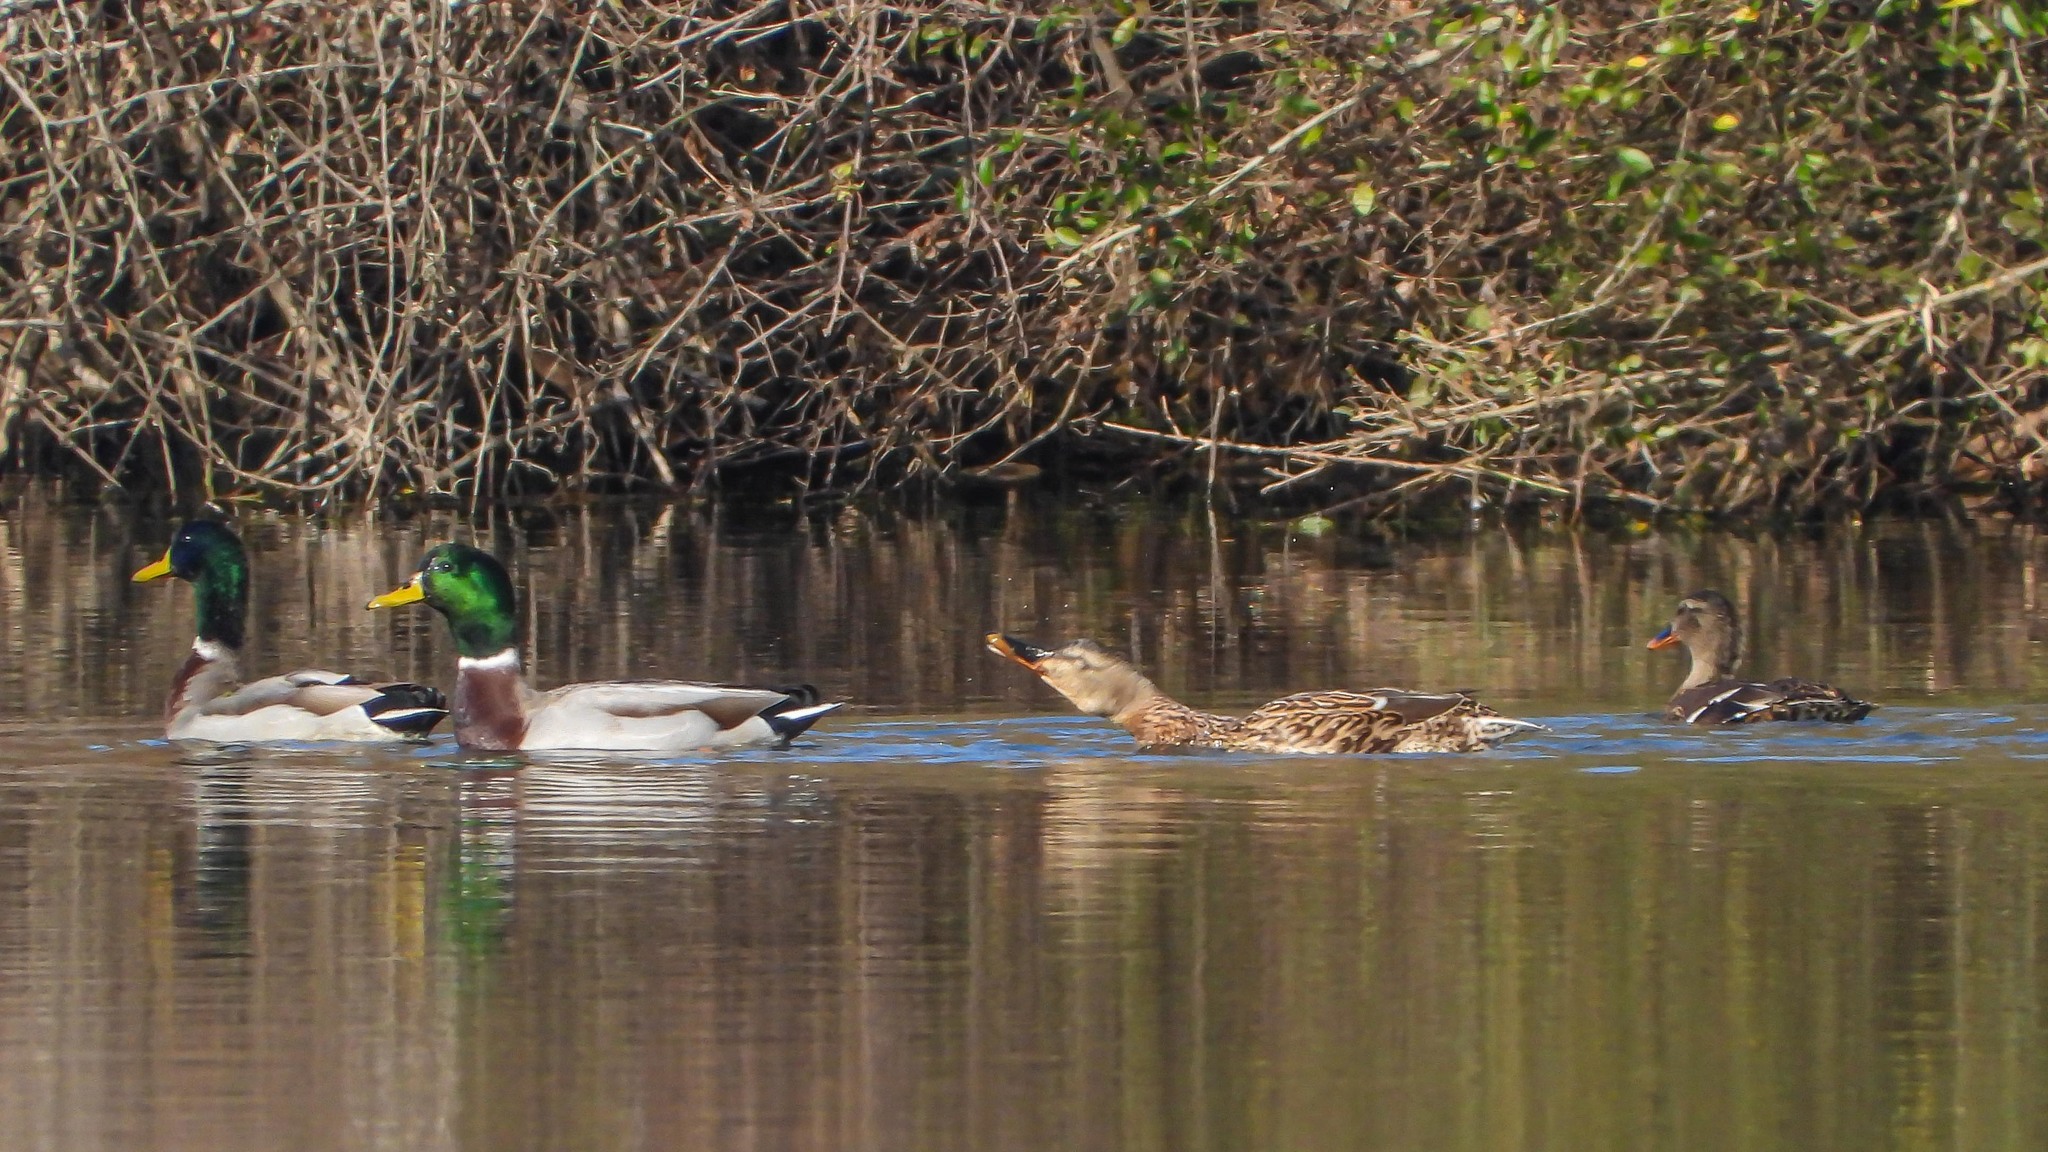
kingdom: Animalia
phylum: Chordata
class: Aves
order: Anseriformes
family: Anatidae
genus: Anas
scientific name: Anas platyrhynchos
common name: Mallard
